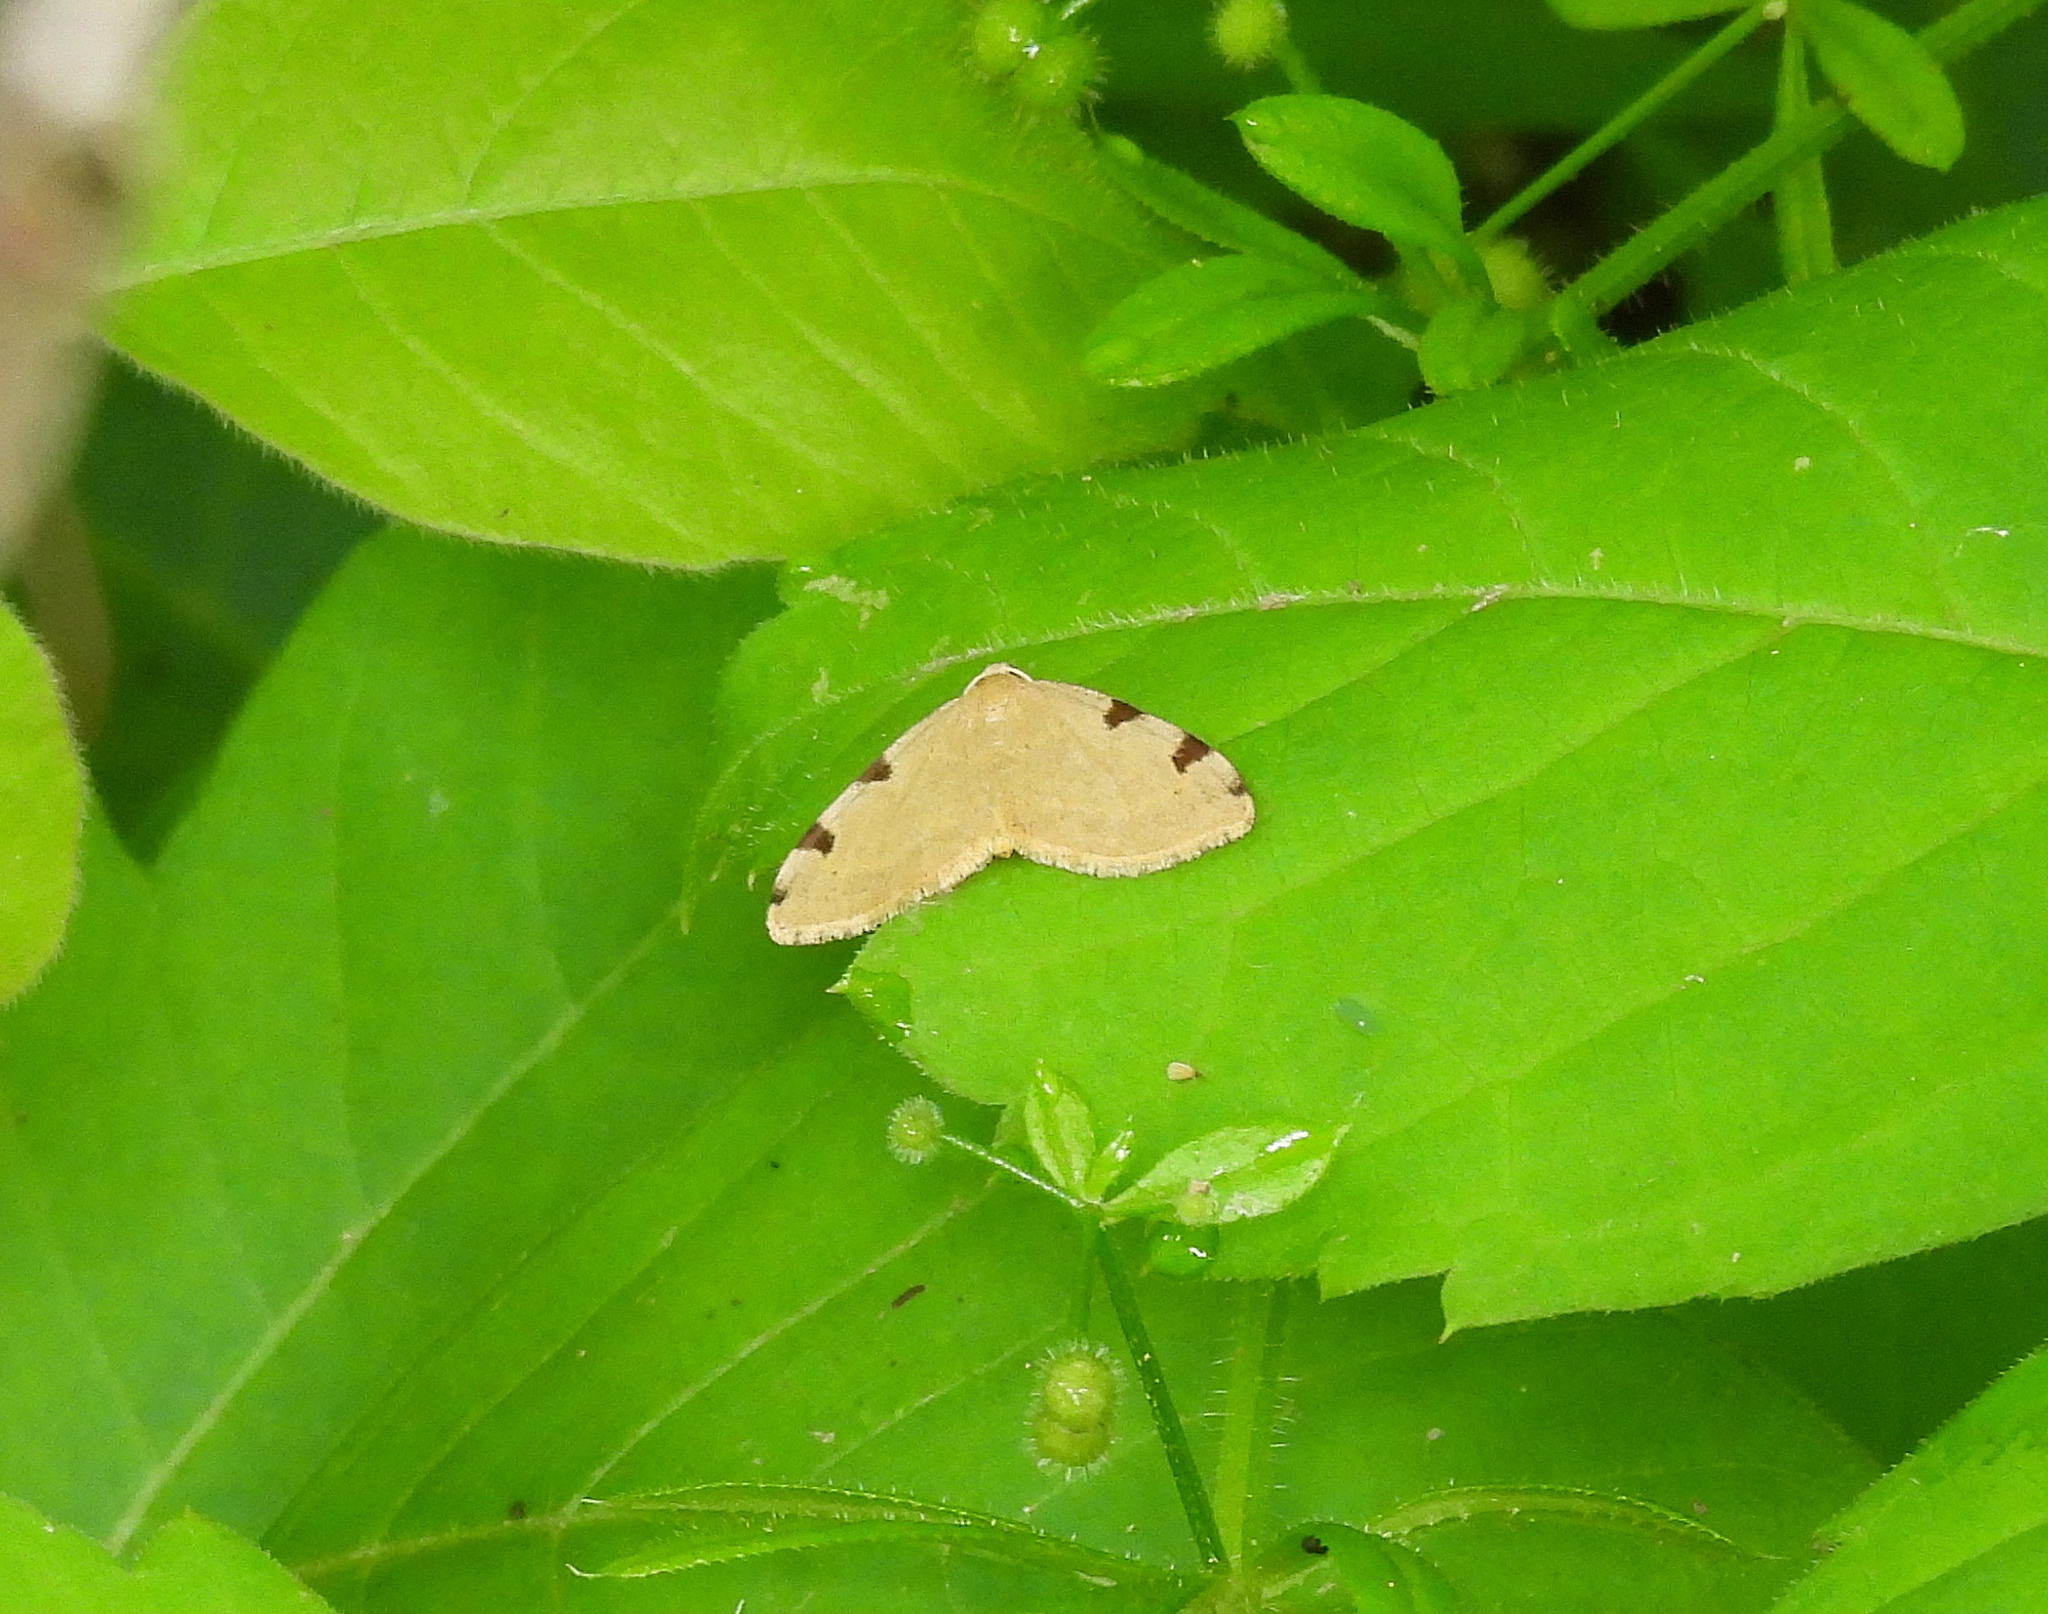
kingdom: Animalia
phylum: Arthropoda
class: Insecta
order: Lepidoptera
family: Geometridae
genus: Heterophleps
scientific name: Heterophleps triguttaria
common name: Three-spotted fillip
